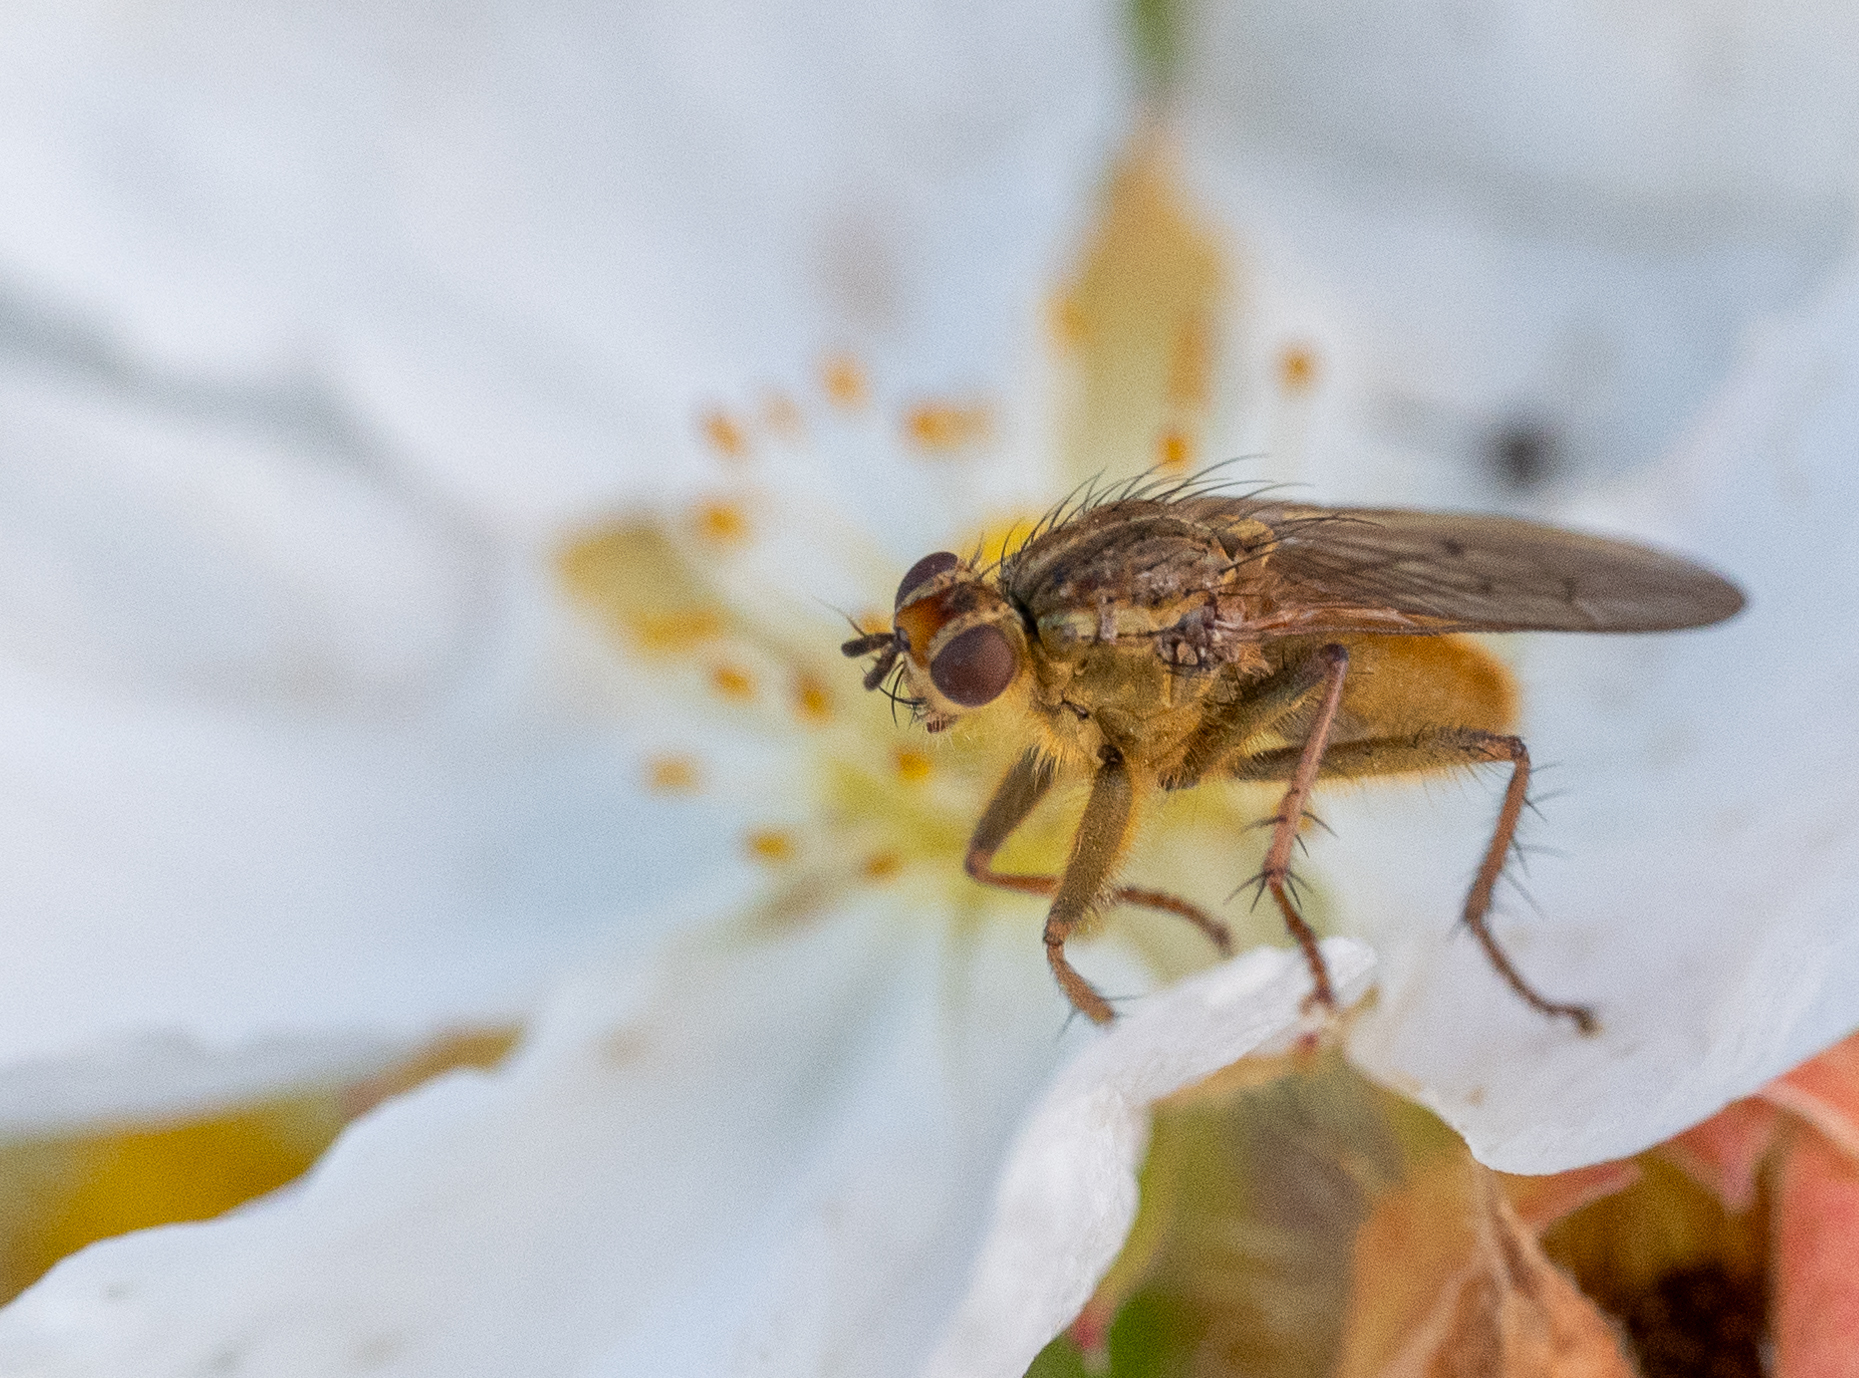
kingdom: Animalia
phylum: Arthropoda
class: Insecta
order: Diptera
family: Scathophagidae
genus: Scathophaga
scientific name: Scathophaga stercoraria
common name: Yellow dung fly
